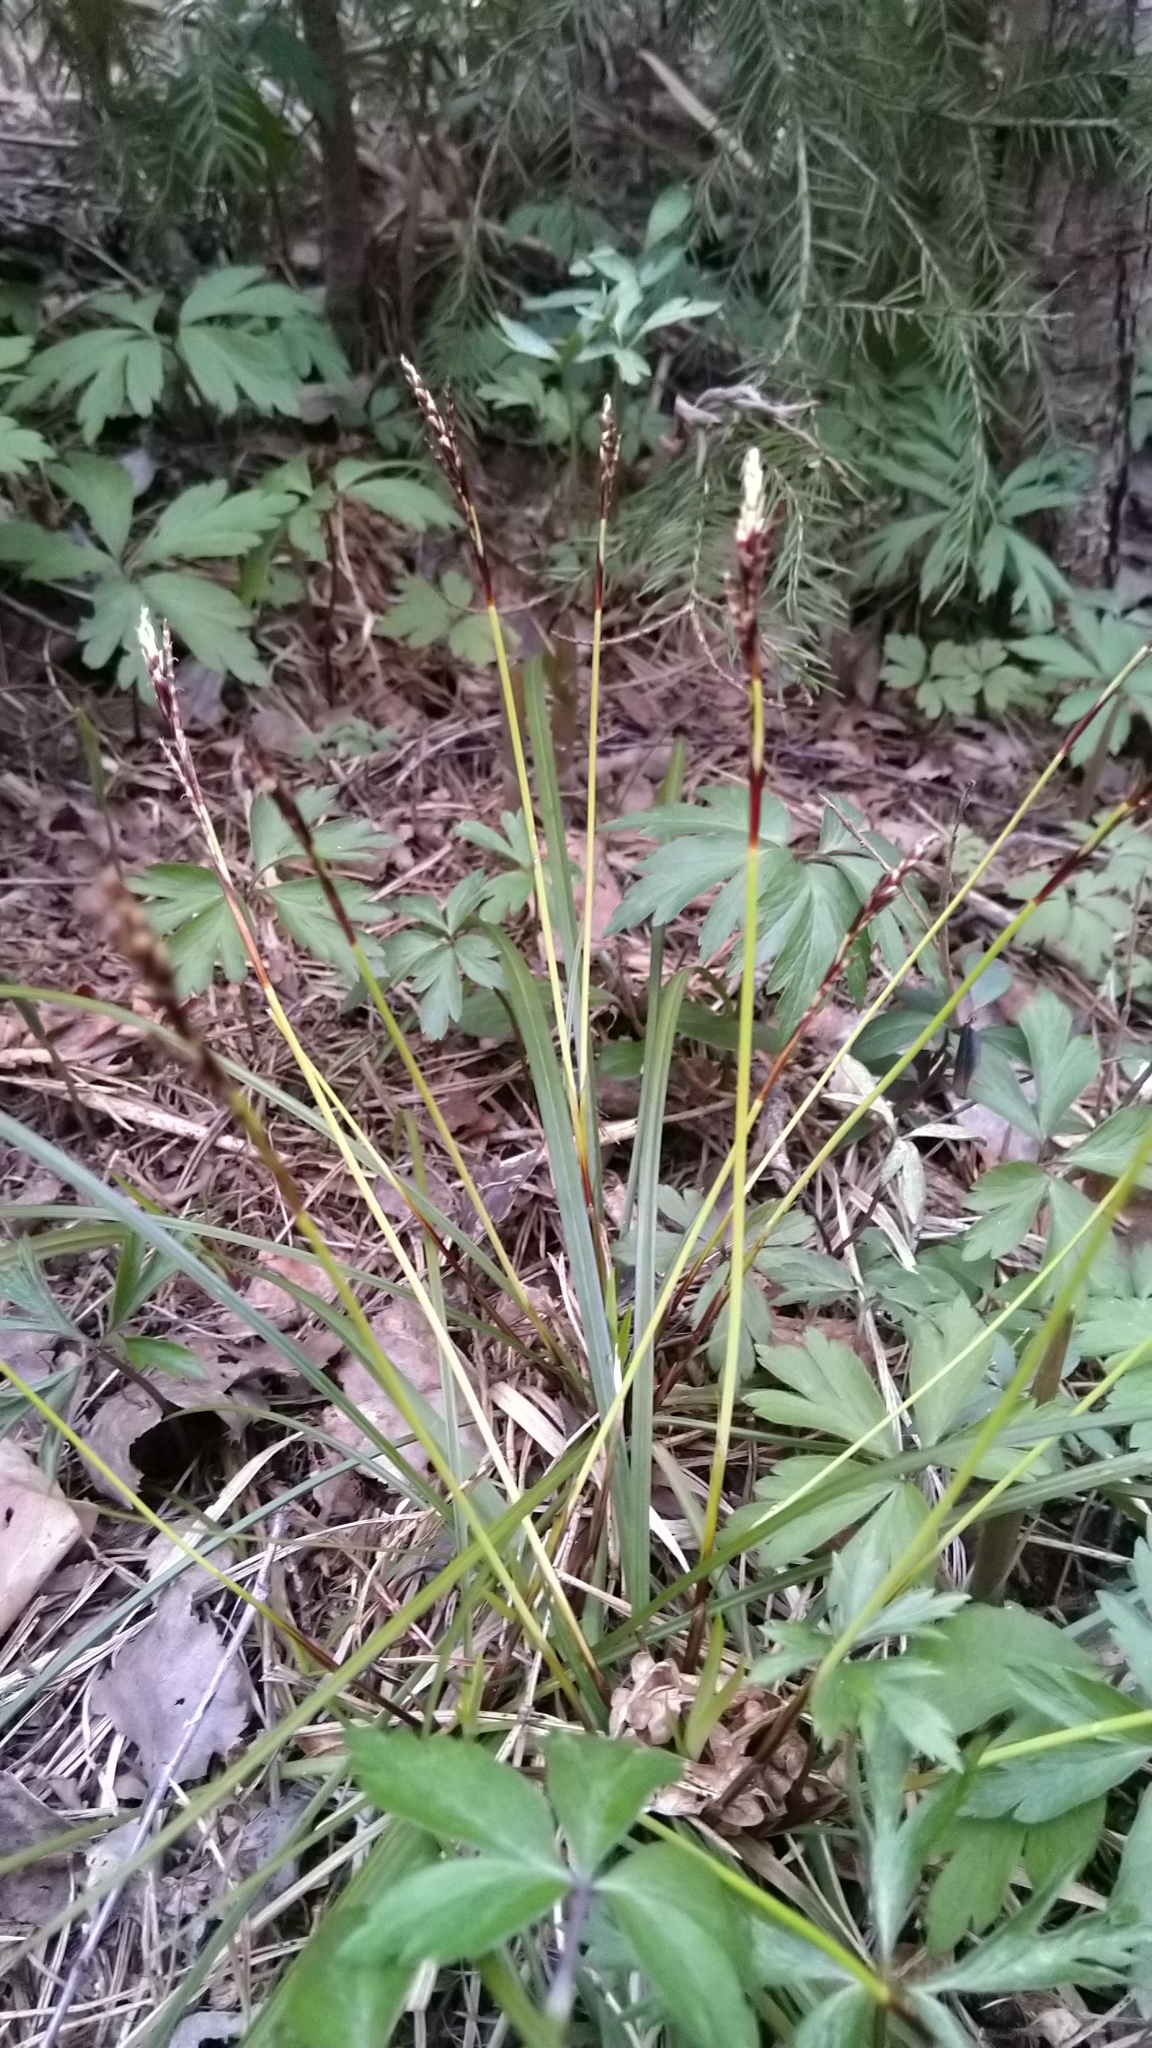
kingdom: Plantae
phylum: Tracheophyta
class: Liliopsida
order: Poales
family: Cyperaceae
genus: Carex
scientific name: Carex digitata
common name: Fingered sedge
